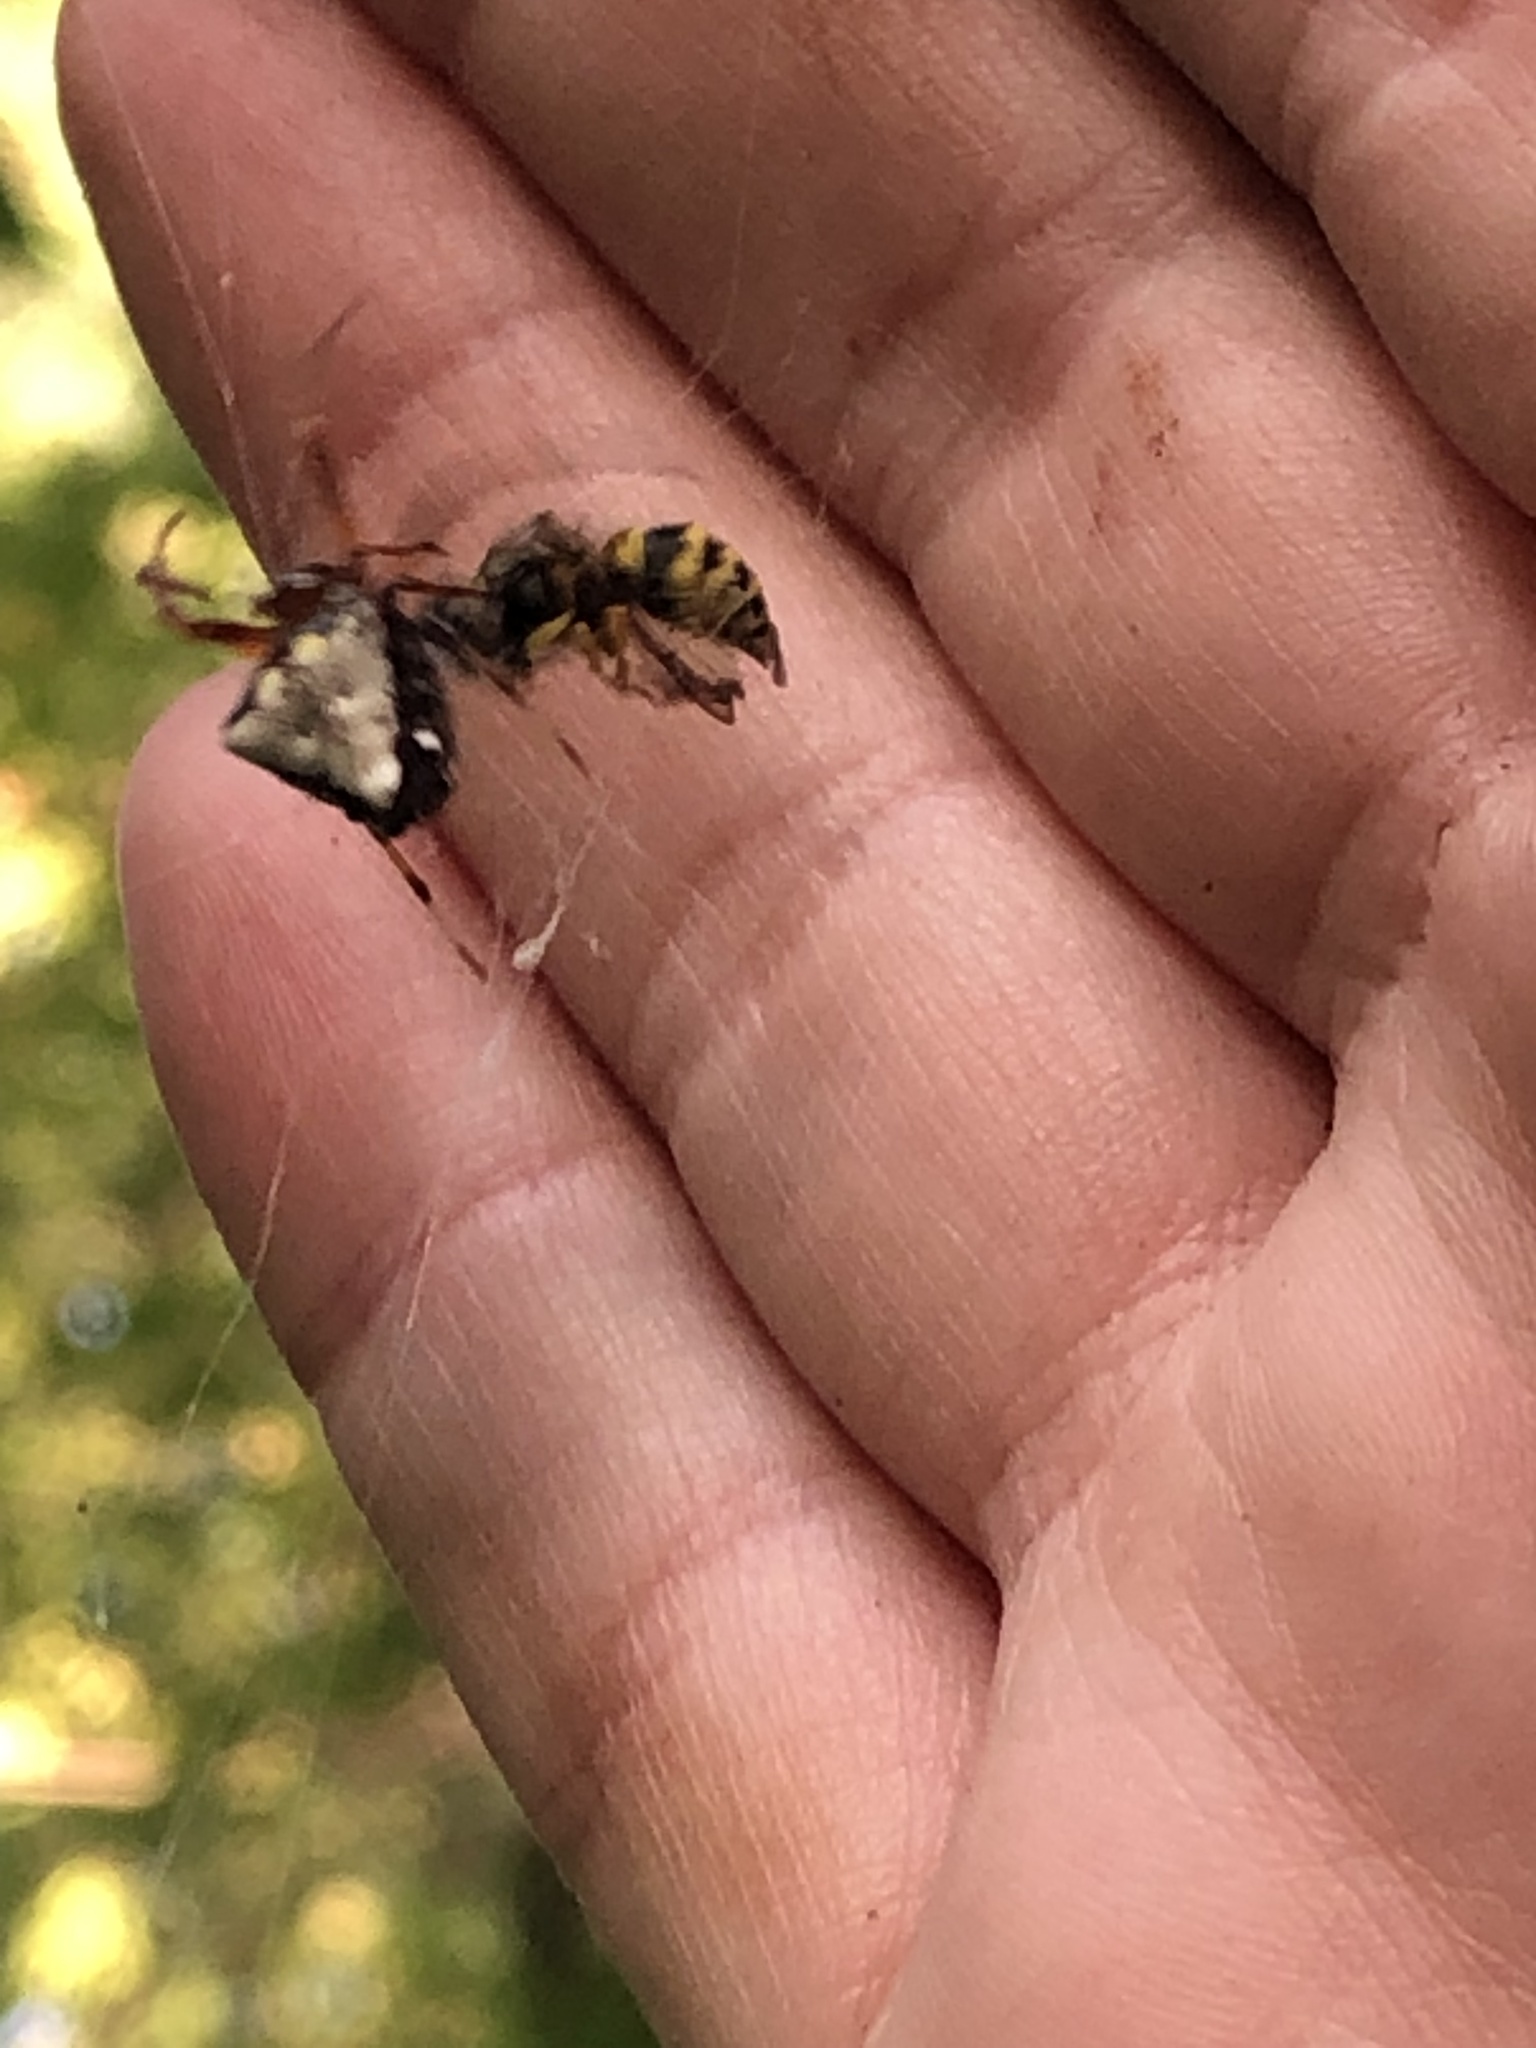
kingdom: Animalia
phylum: Arthropoda
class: Arachnida
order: Araneae
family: Araneidae
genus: Verrucosa
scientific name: Verrucosa arenata
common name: Orb weavers
